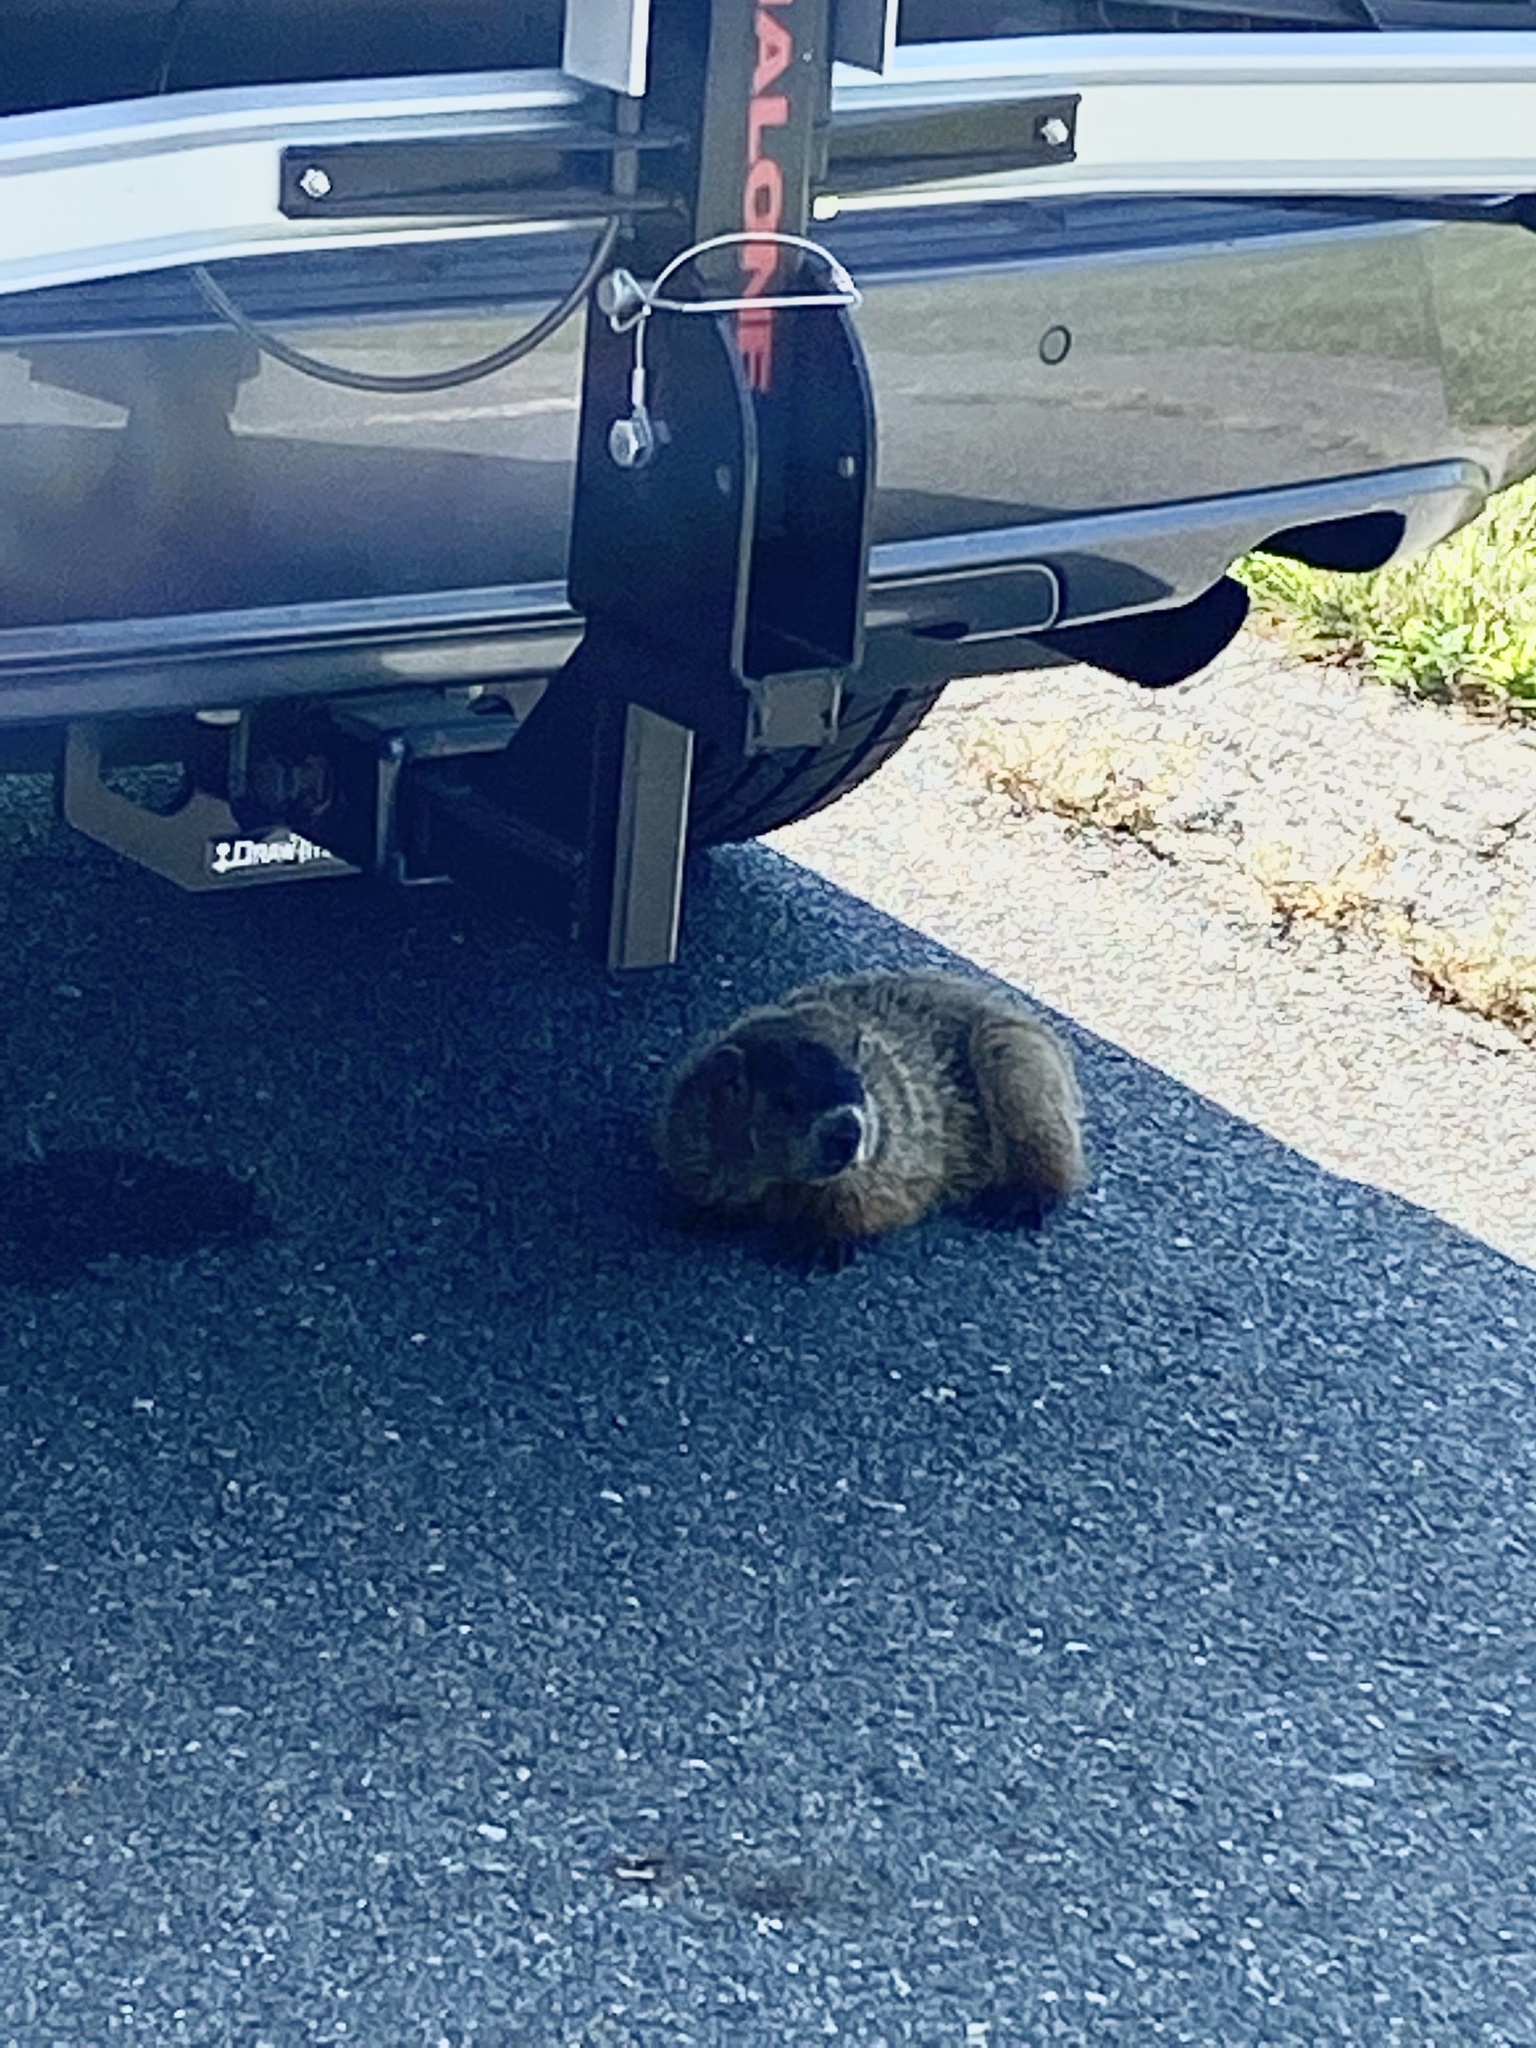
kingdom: Animalia
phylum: Chordata
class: Mammalia
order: Rodentia
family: Sciuridae
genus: Marmota
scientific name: Marmota monax
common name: Groundhog
